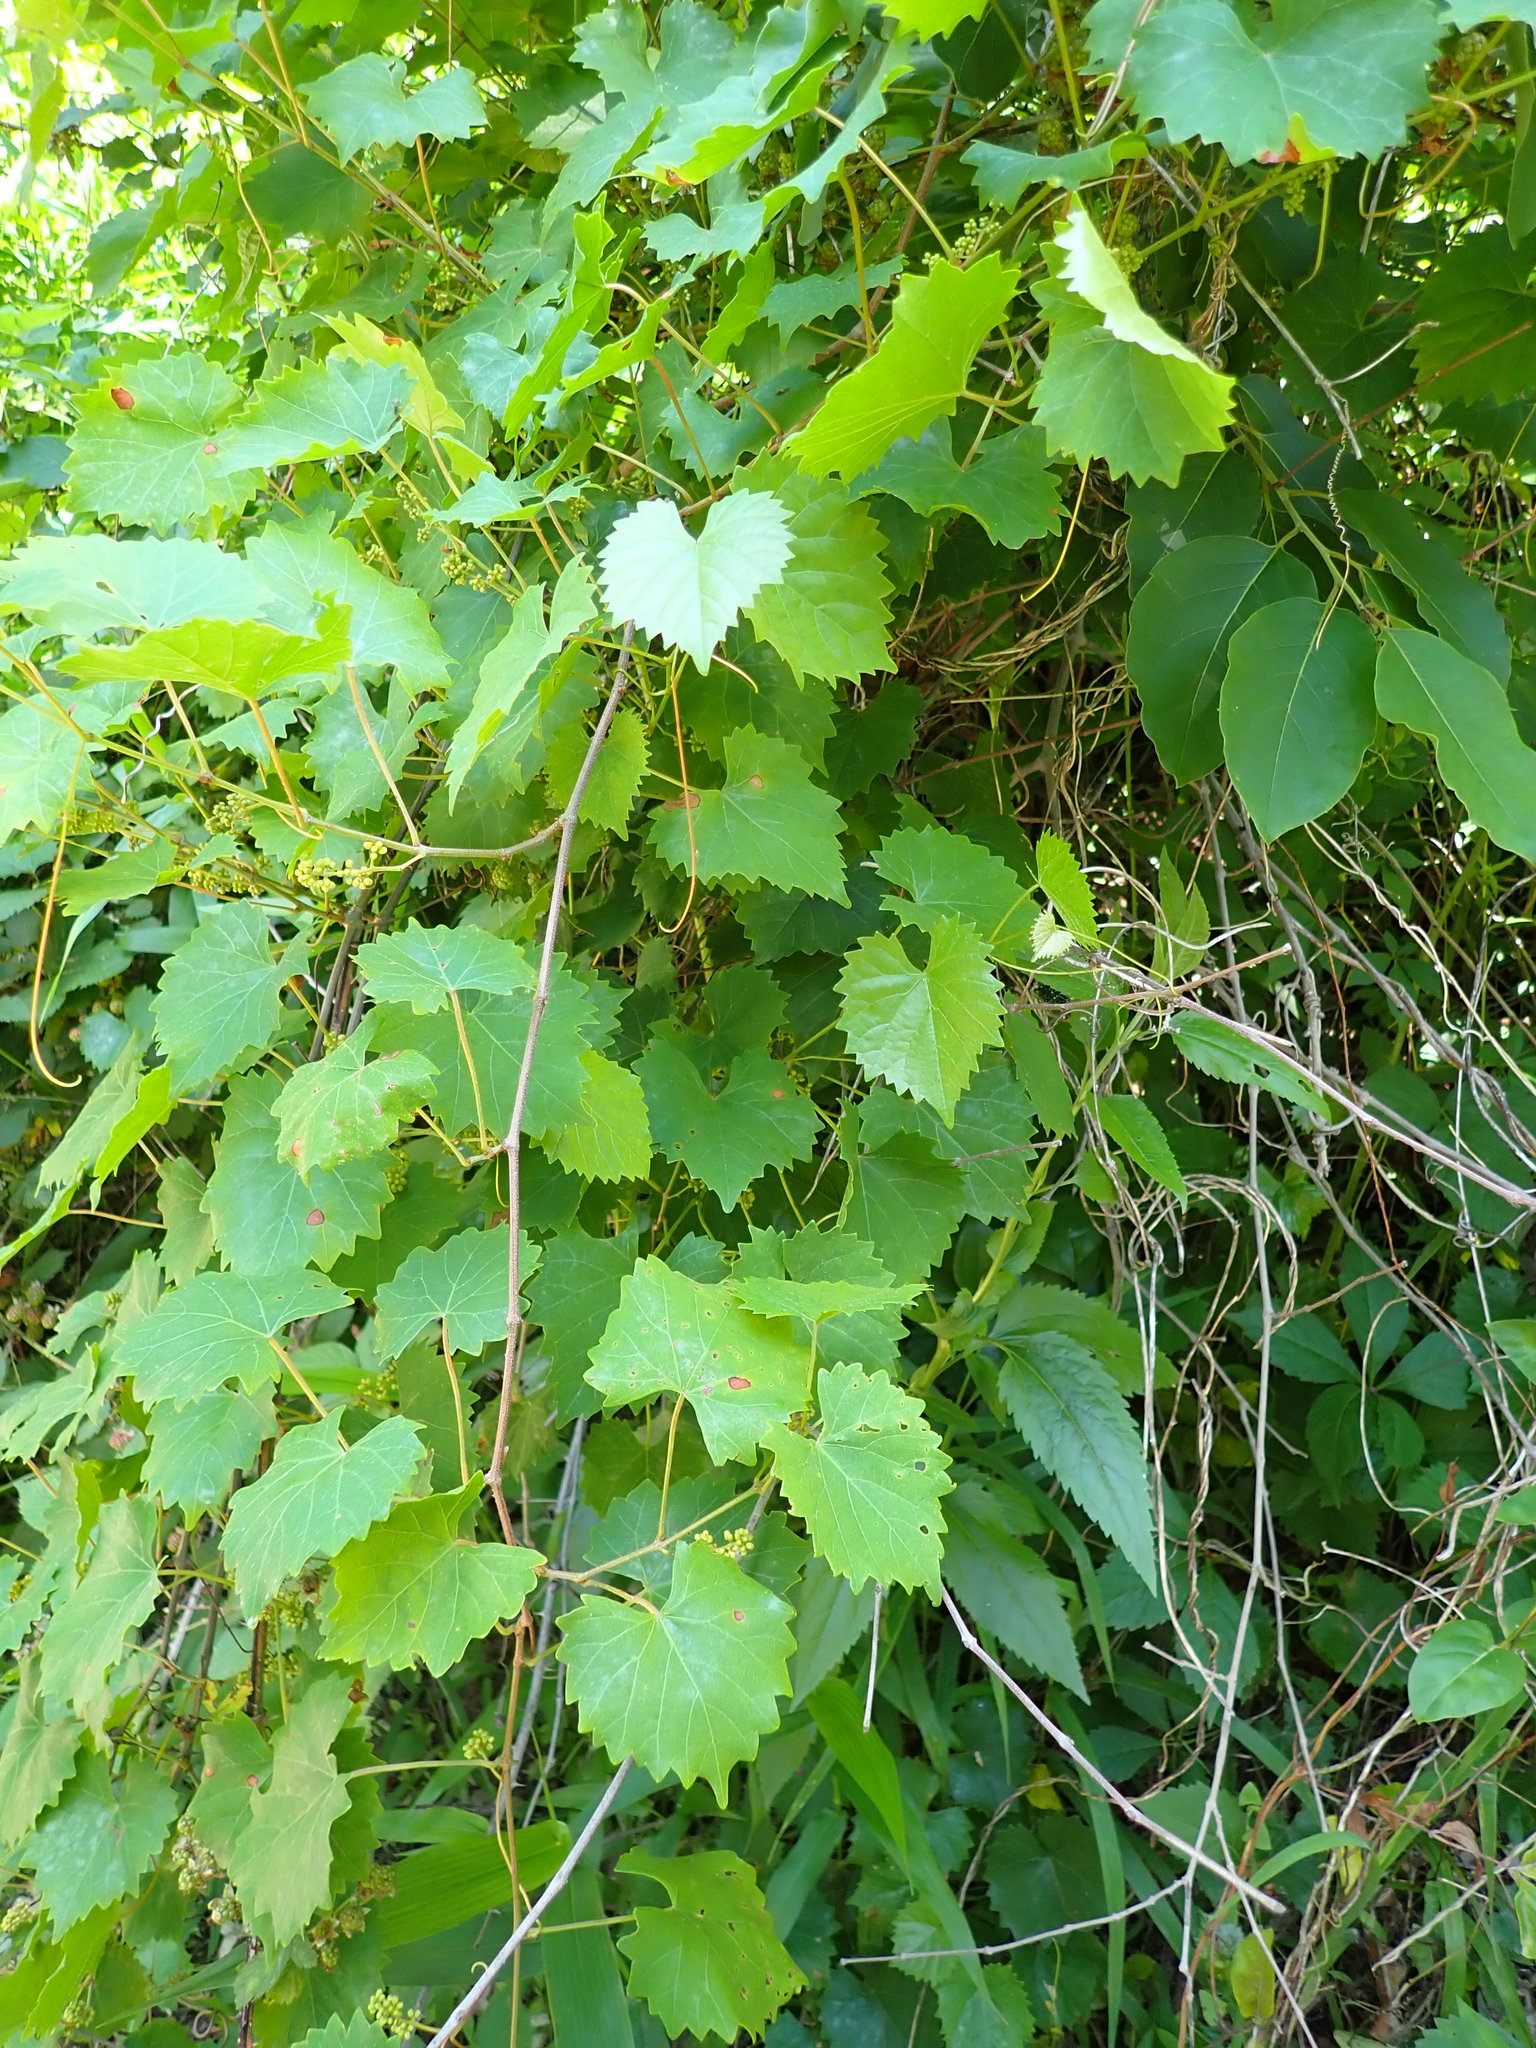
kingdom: Plantae
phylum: Tracheophyta
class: Magnoliopsida
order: Vitales
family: Vitaceae
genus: Vitis
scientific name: Vitis rotundifolia
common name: Muscadine grape
